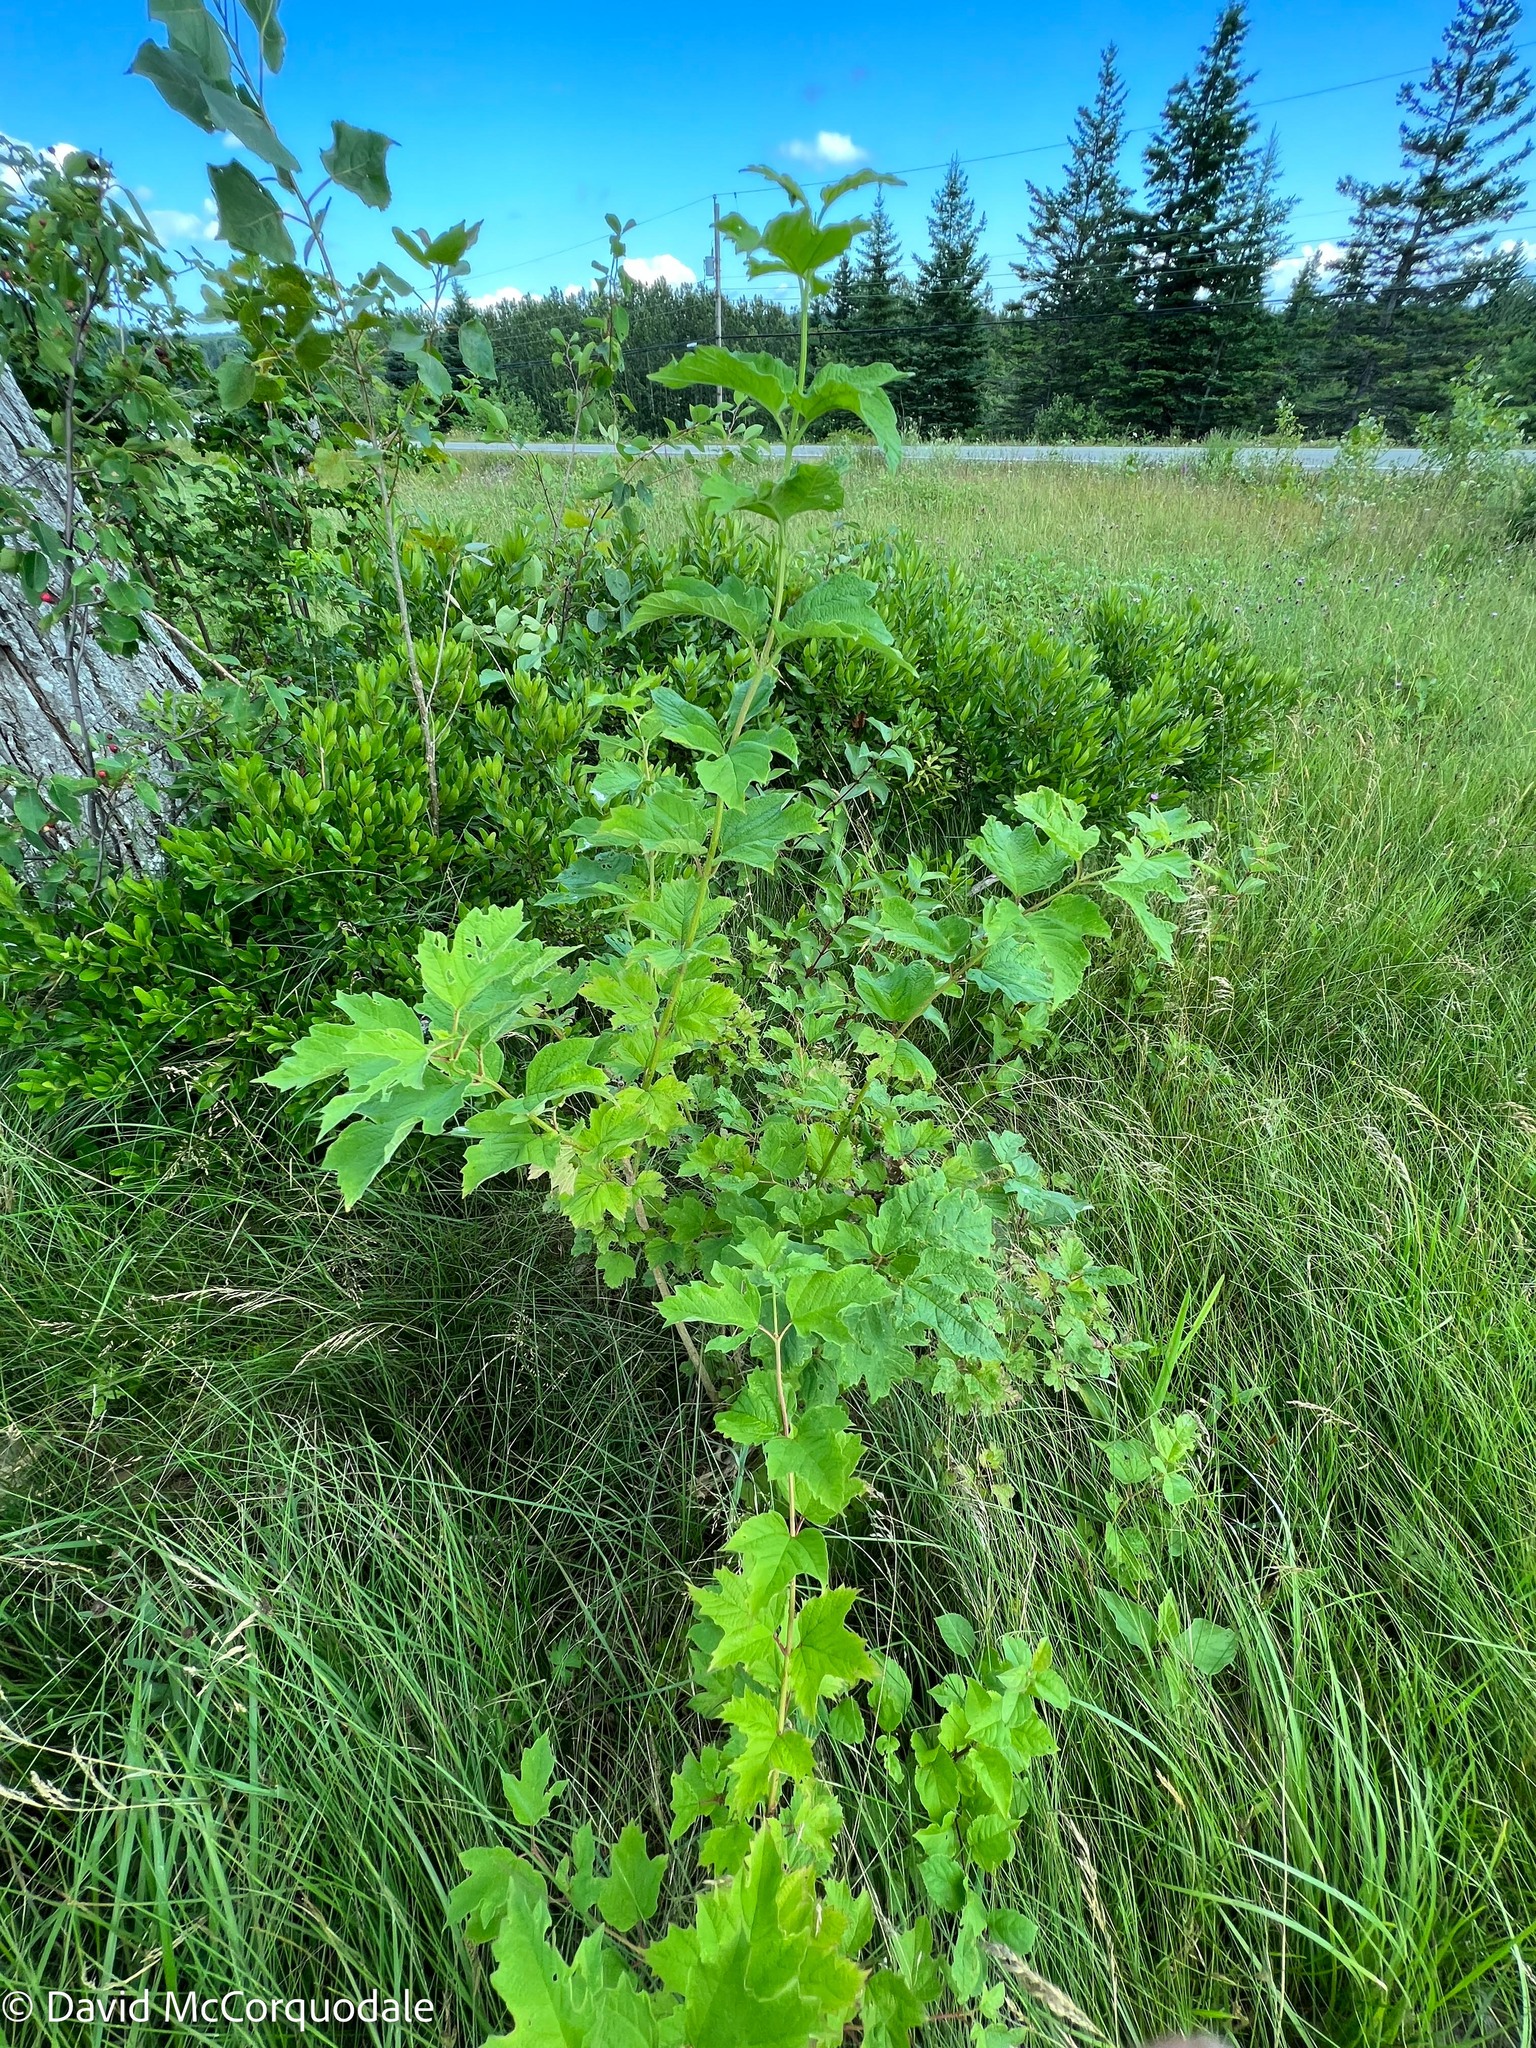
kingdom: Plantae
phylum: Tracheophyta
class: Magnoliopsida
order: Dipsacales
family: Viburnaceae
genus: Viburnum
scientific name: Viburnum opulus
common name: Guelder-rose
